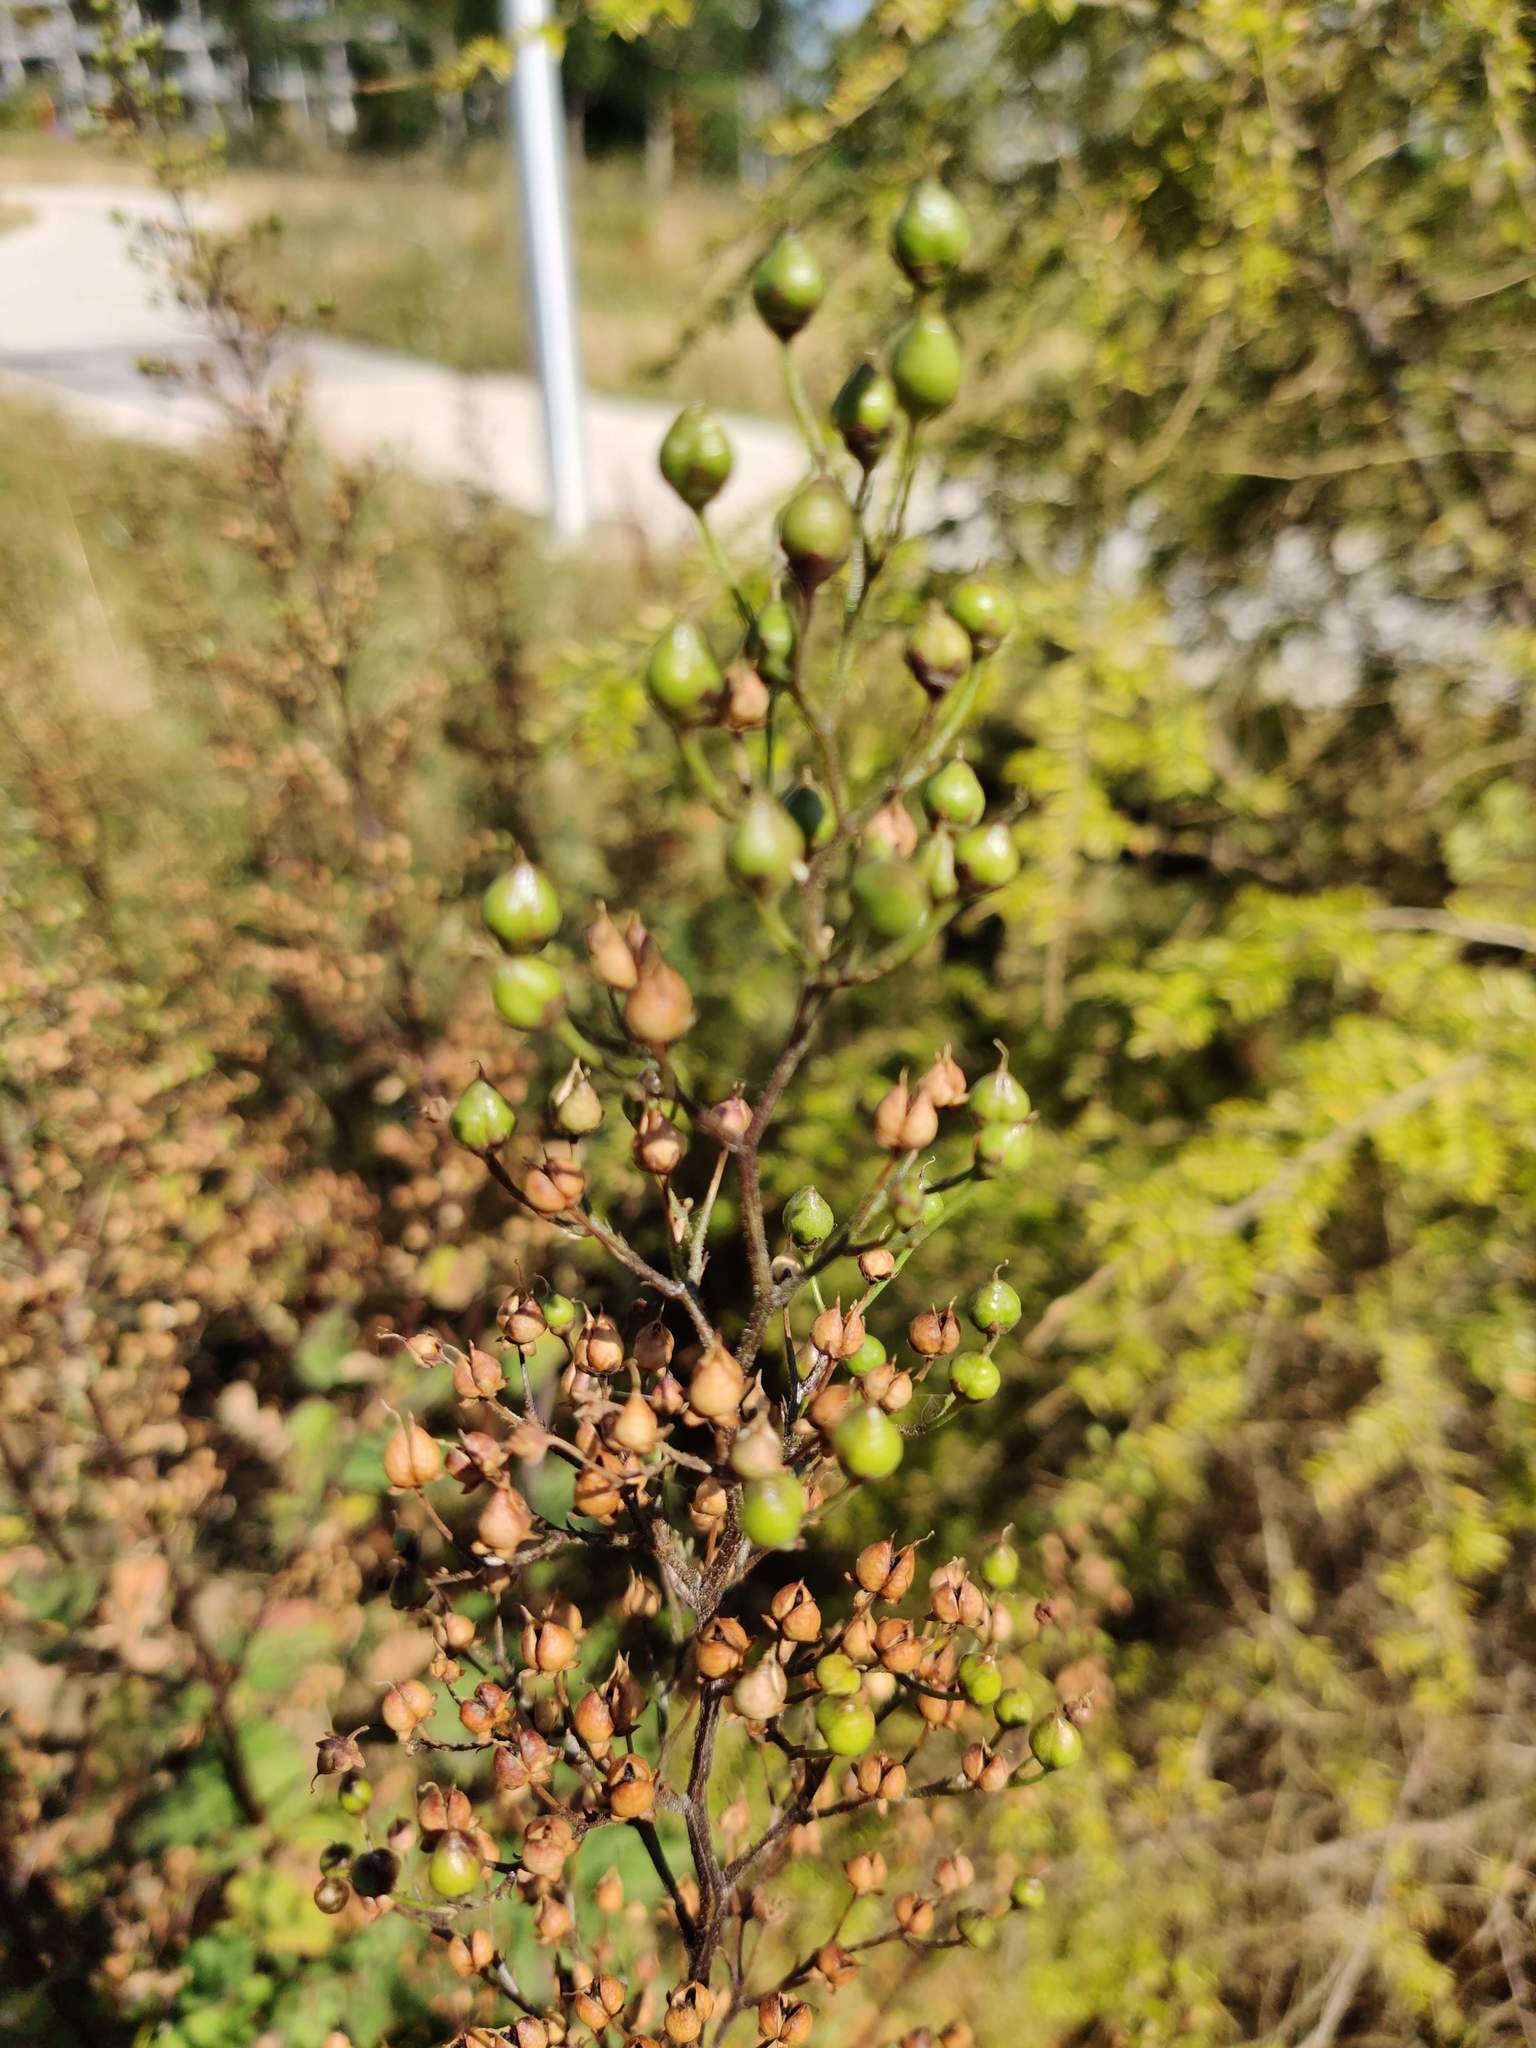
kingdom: Plantae
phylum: Tracheophyta
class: Magnoliopsida
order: Lamiales
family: Scrophulariaceae
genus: Scrophularia
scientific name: Scrophularia nodosa
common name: Common figwort
